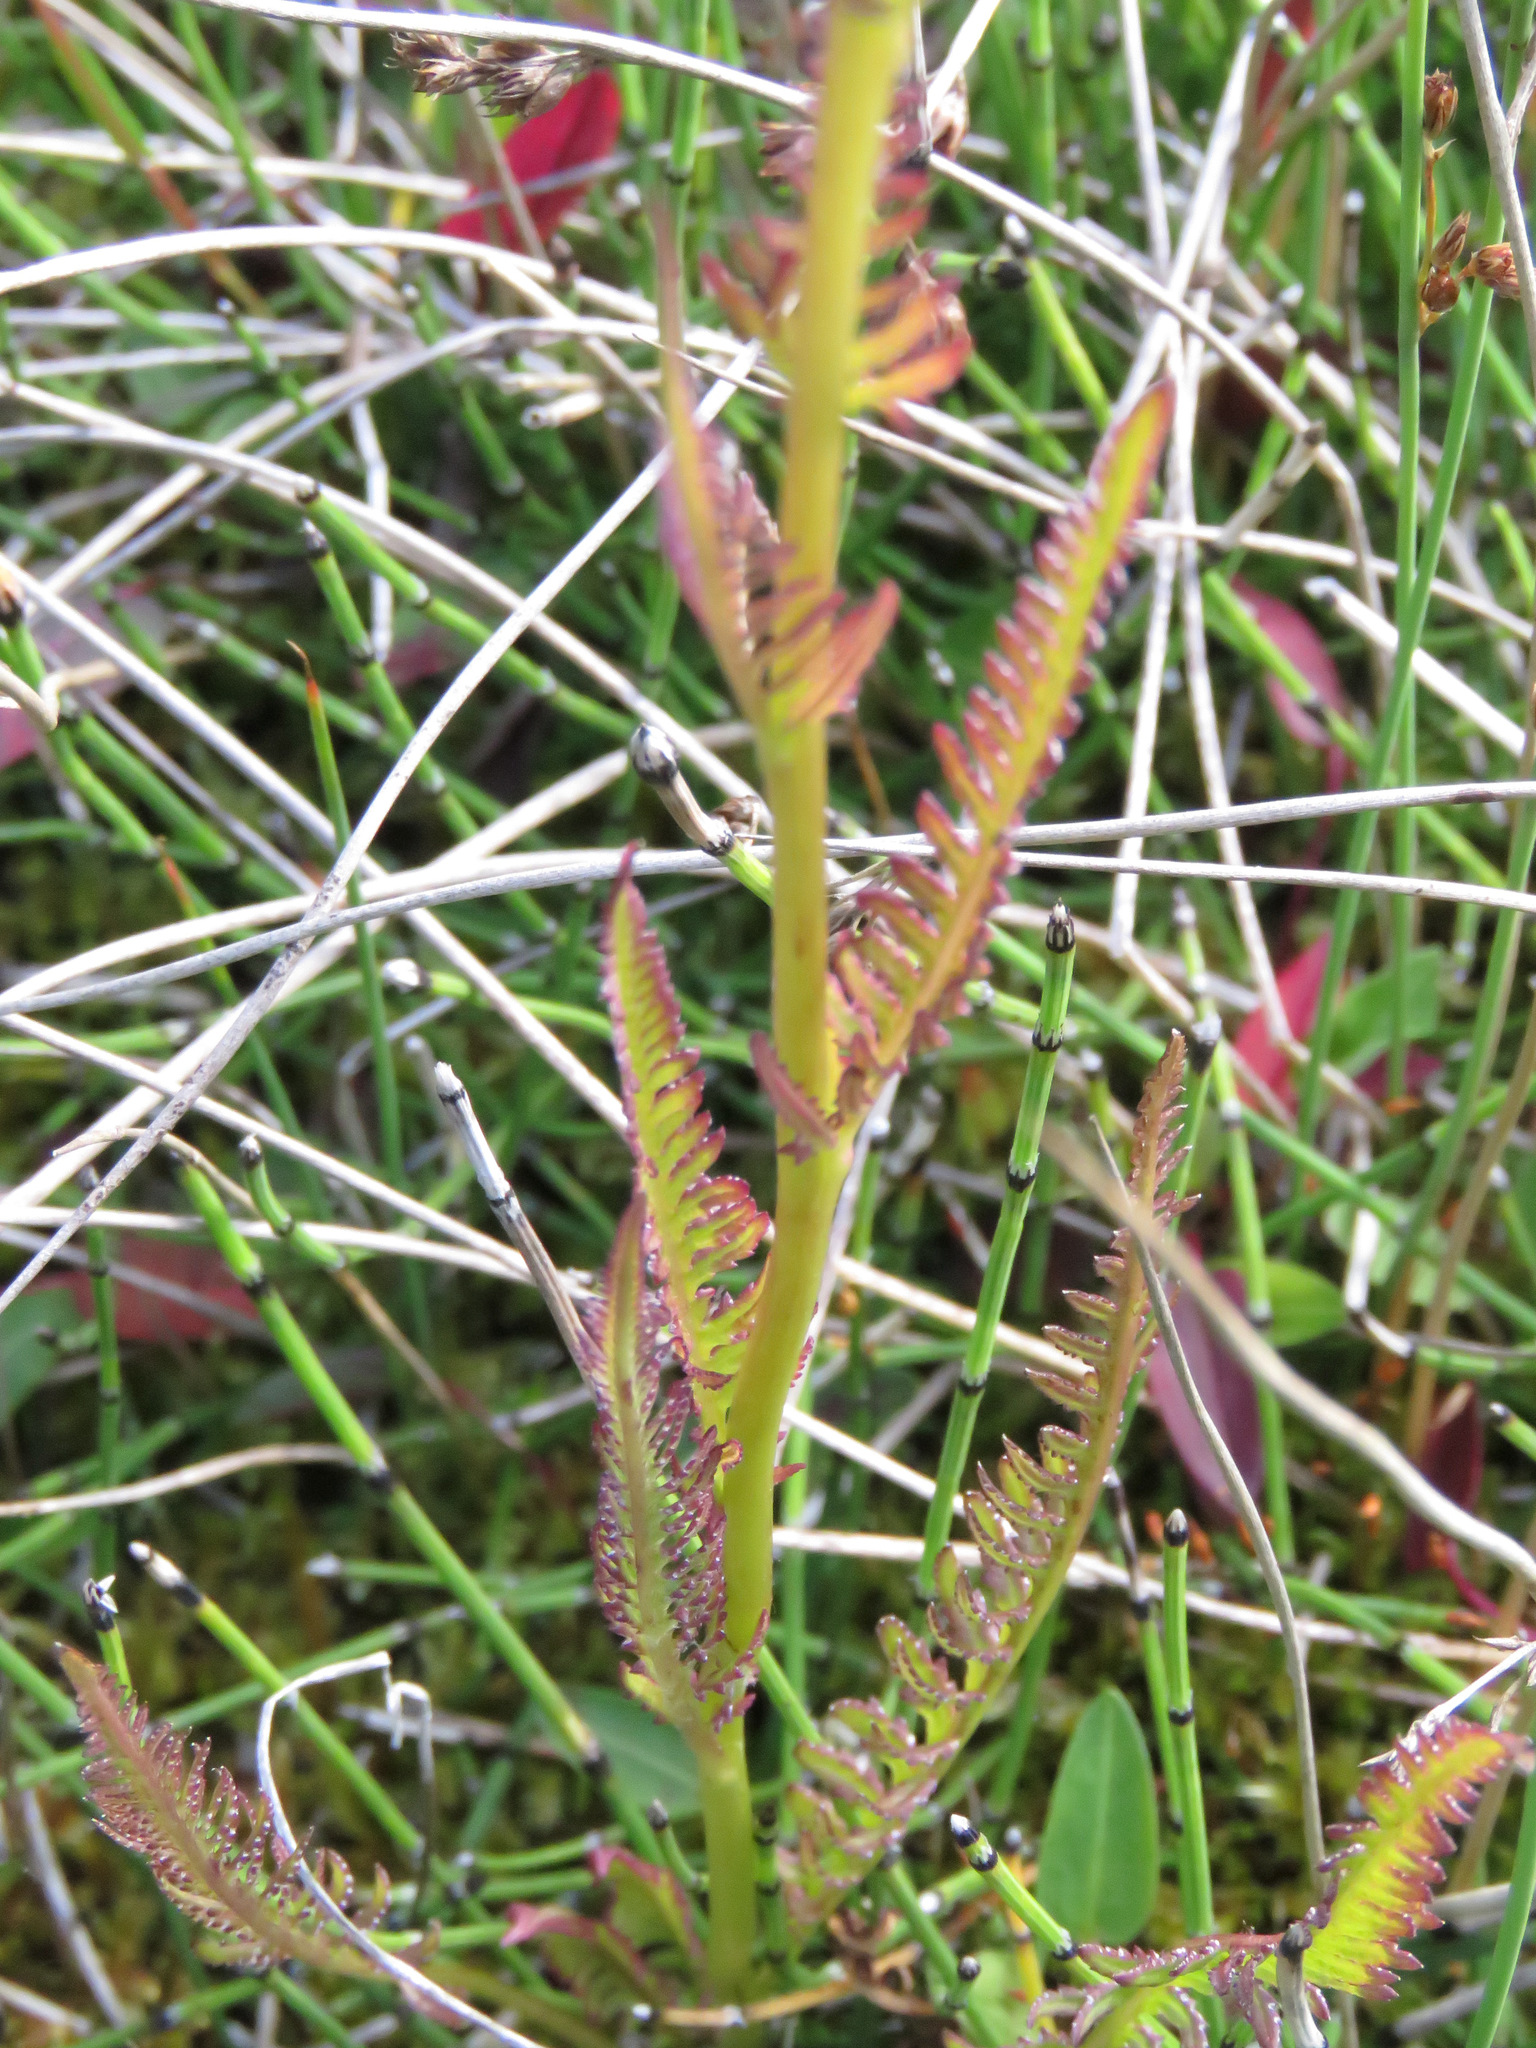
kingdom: Plantae
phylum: Tracheophyta
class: Magnoliopsida
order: Lamiales
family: Orobanchaceae
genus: Pedicularis
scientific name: Pedicularis groenlandica
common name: Elephant's-head
